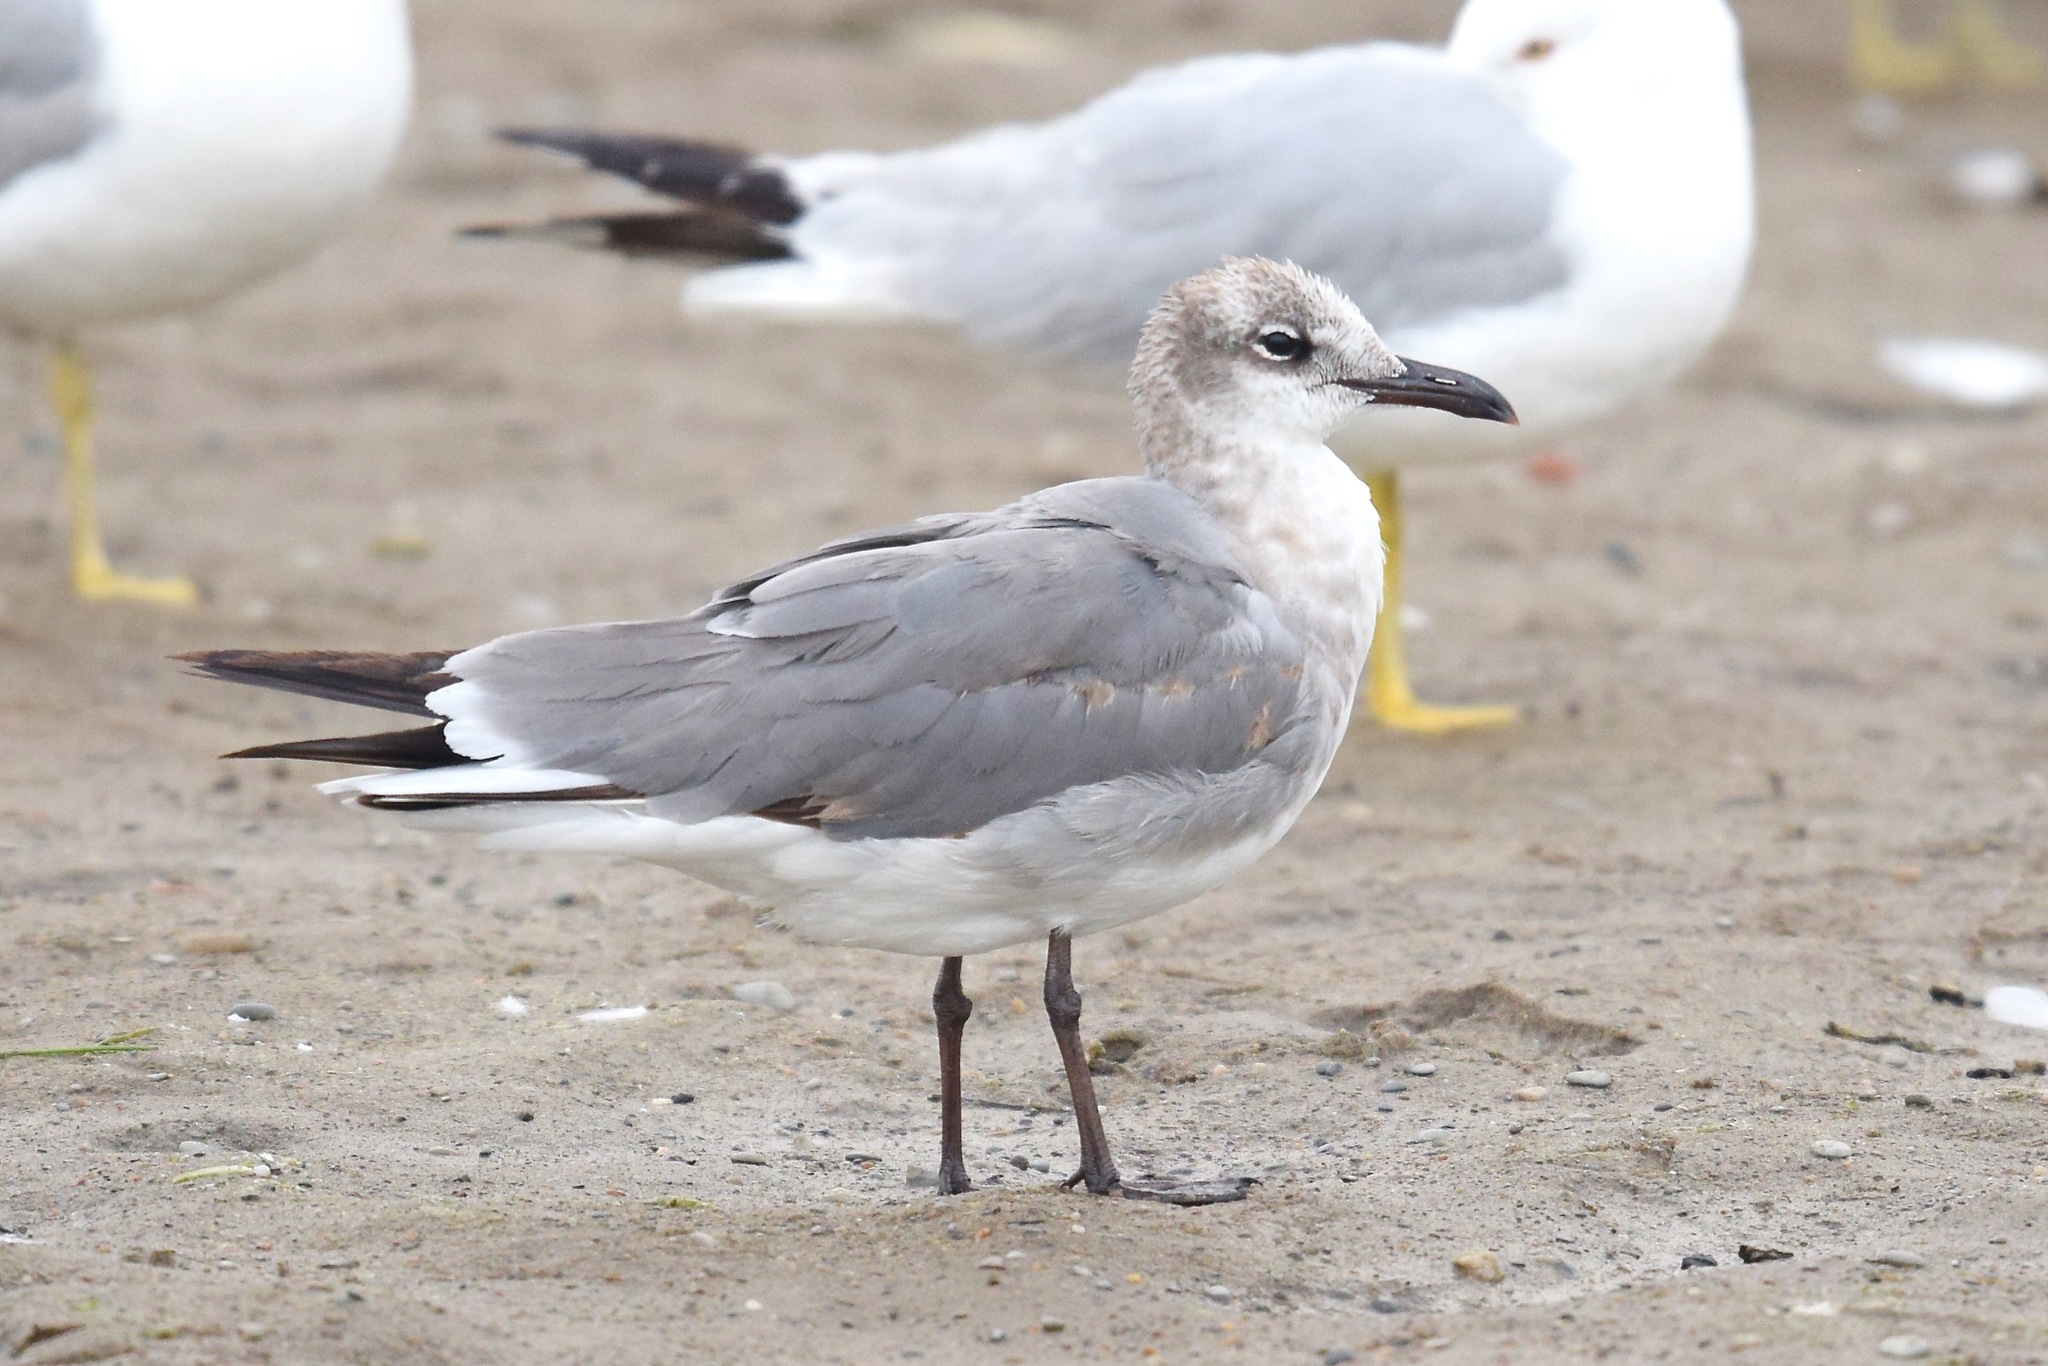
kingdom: Animalia
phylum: Chordata
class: Aves
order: Charadriiformes
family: Laridae
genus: Leucophaeus
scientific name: Leucophaeus atricilla
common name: Laughing gull
